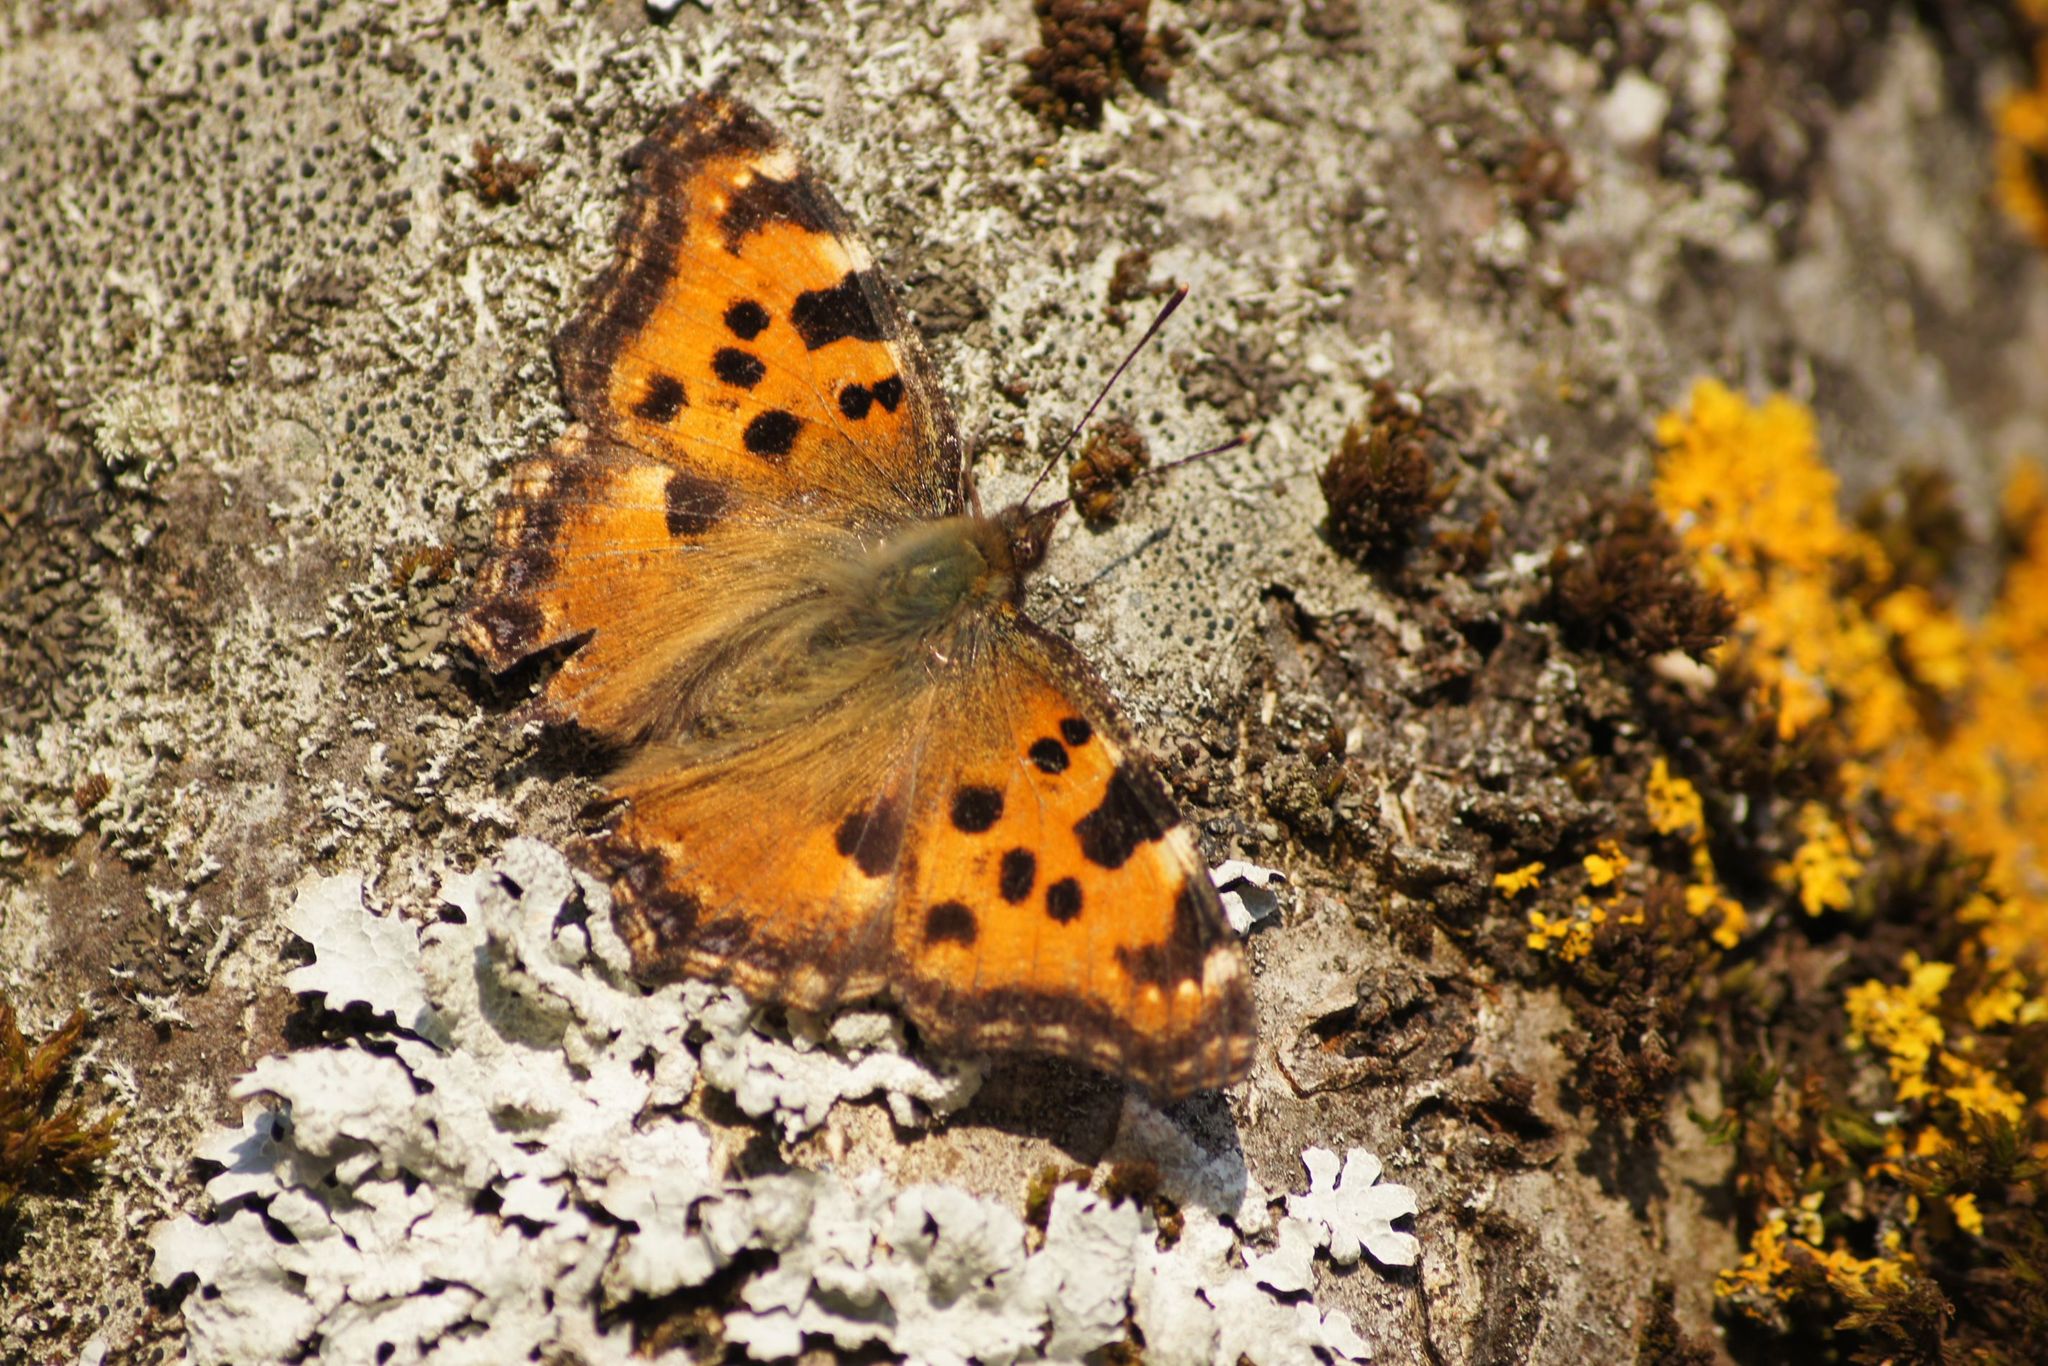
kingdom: Animalia
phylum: Arthropoda
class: Insecta
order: Lepidoptera
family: Nymphalidae
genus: Nymphalis
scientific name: Nymphalis polychloros
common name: Large tortoiseshell
